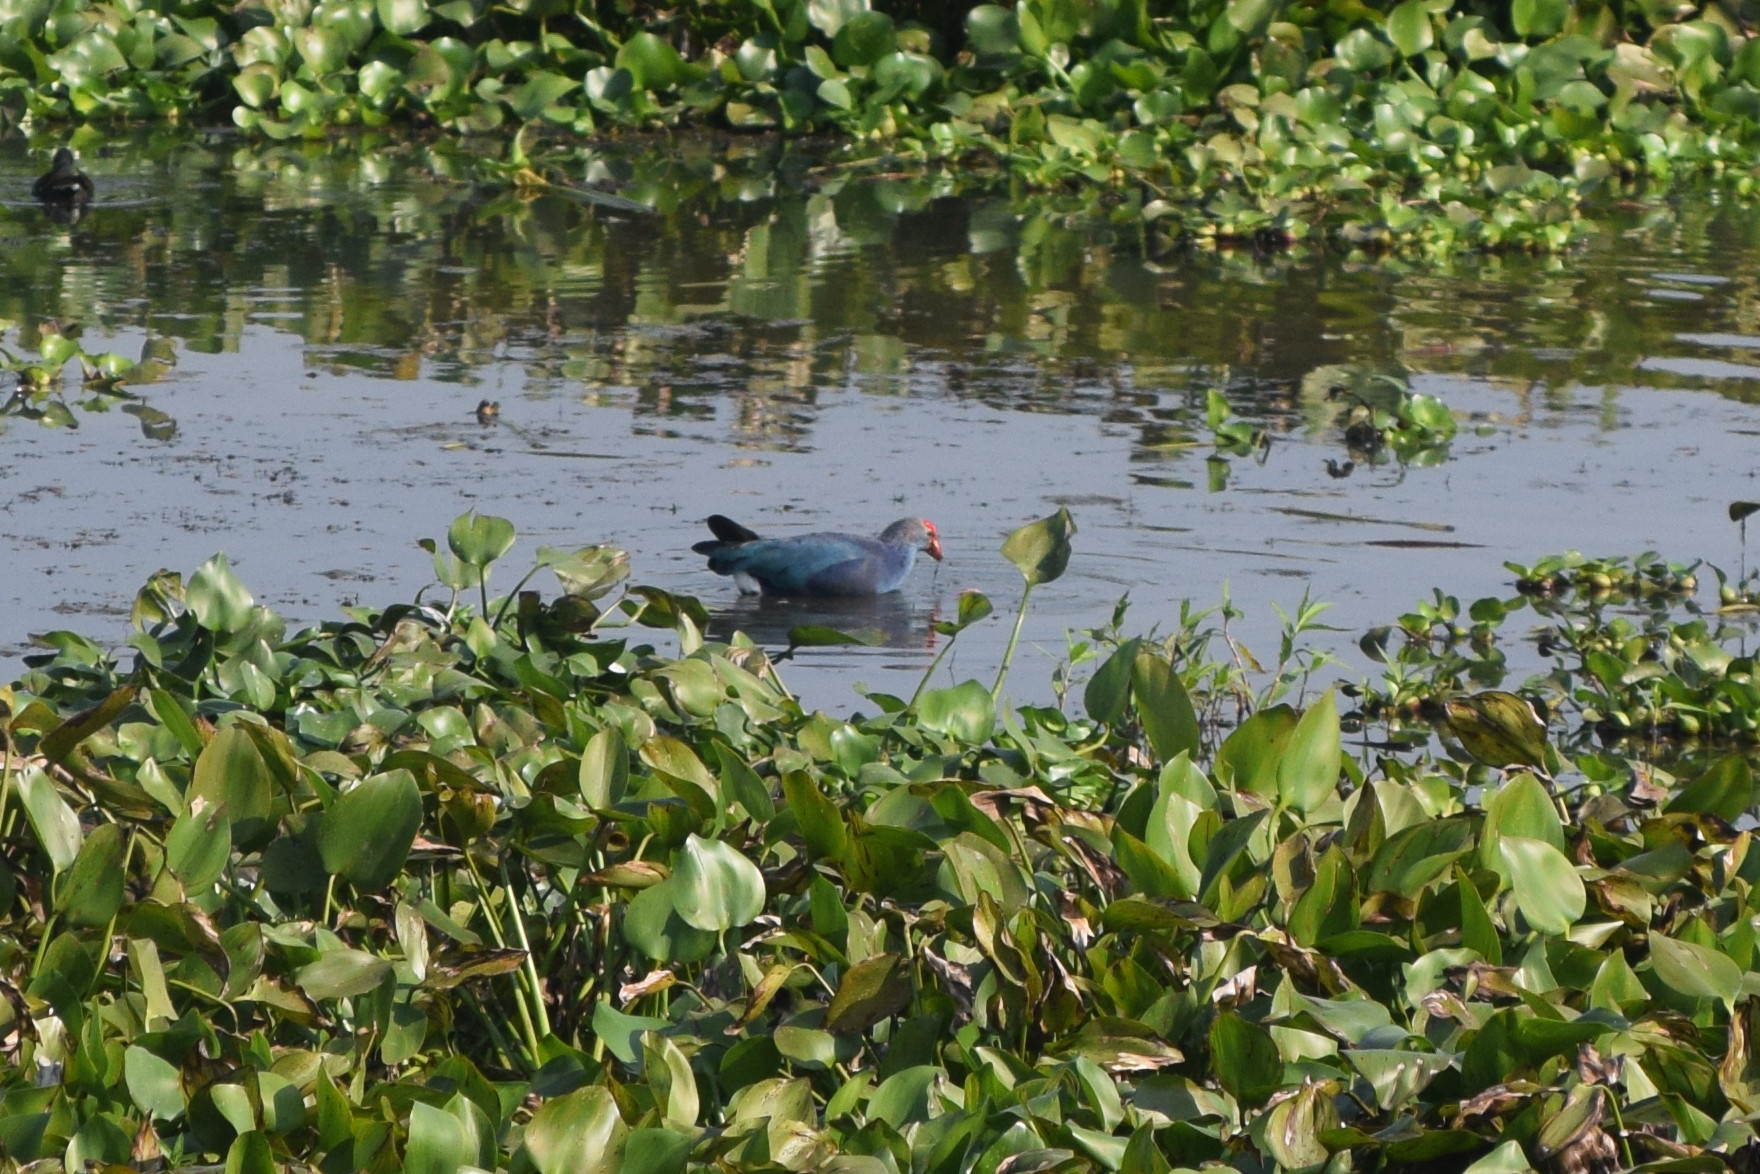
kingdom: Animalia
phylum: Chordata
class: Aves
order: Gruiformes
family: Rallidae
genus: Porphyrio
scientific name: Porphyrio porphyrio
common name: Purple swamphen
